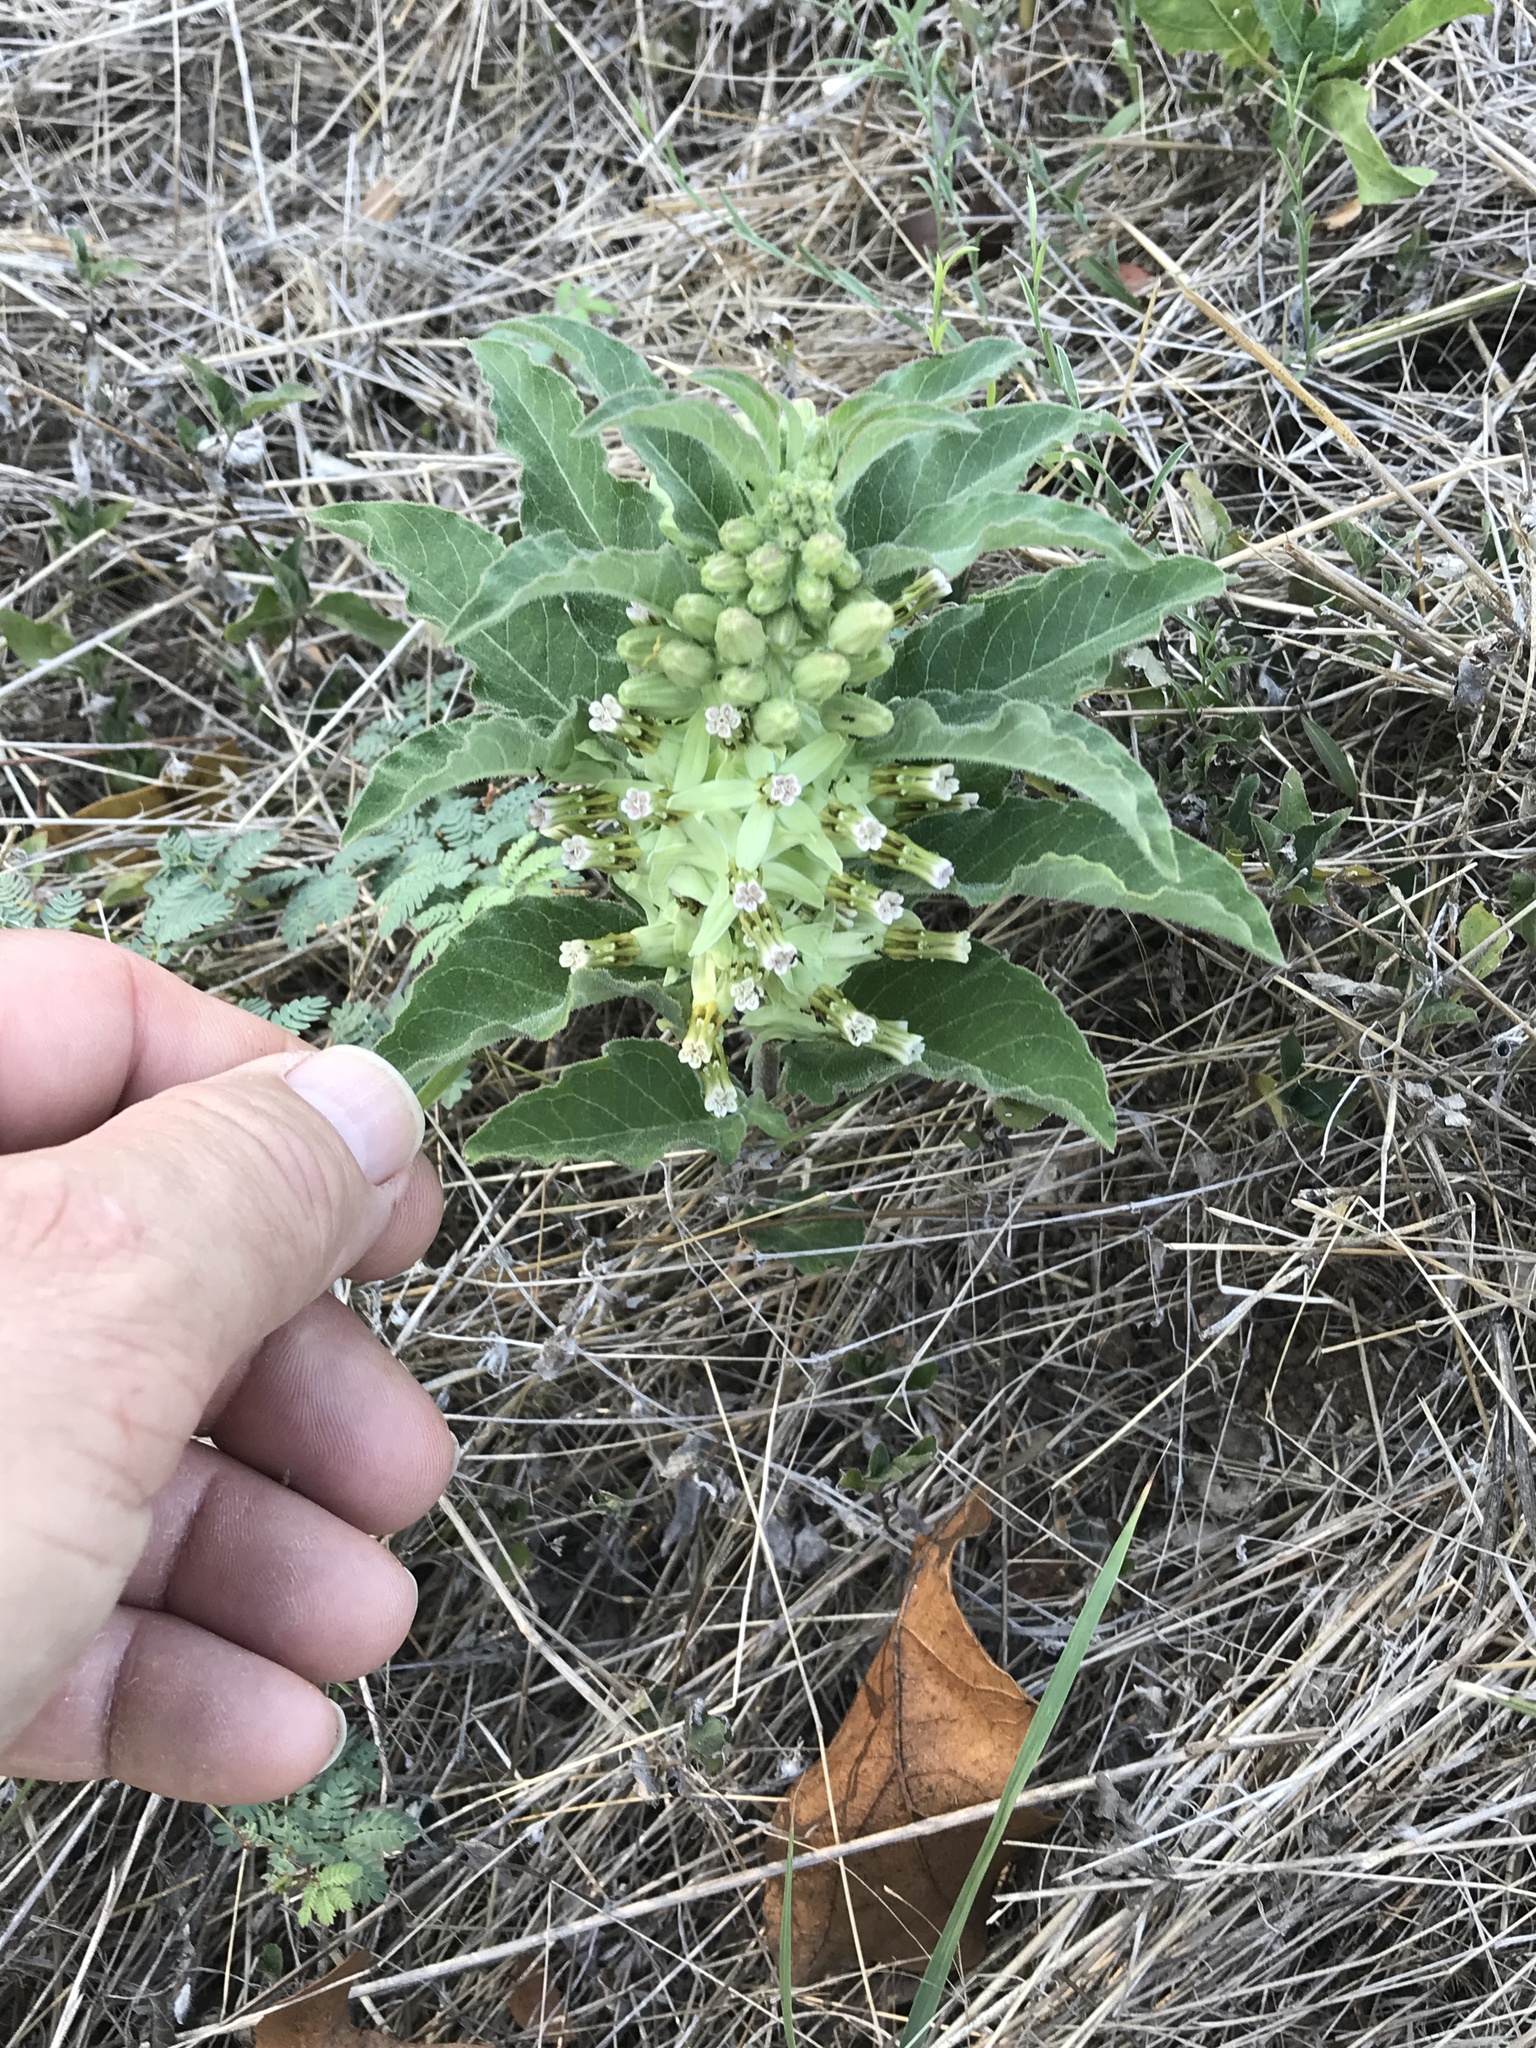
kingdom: Plantae
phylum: Tracheophyta
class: Magnoliopsida
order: Gentianales
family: Apocynaceae
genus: Asclepias
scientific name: Asclepias oenotheroides
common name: Zizotes milkweed
